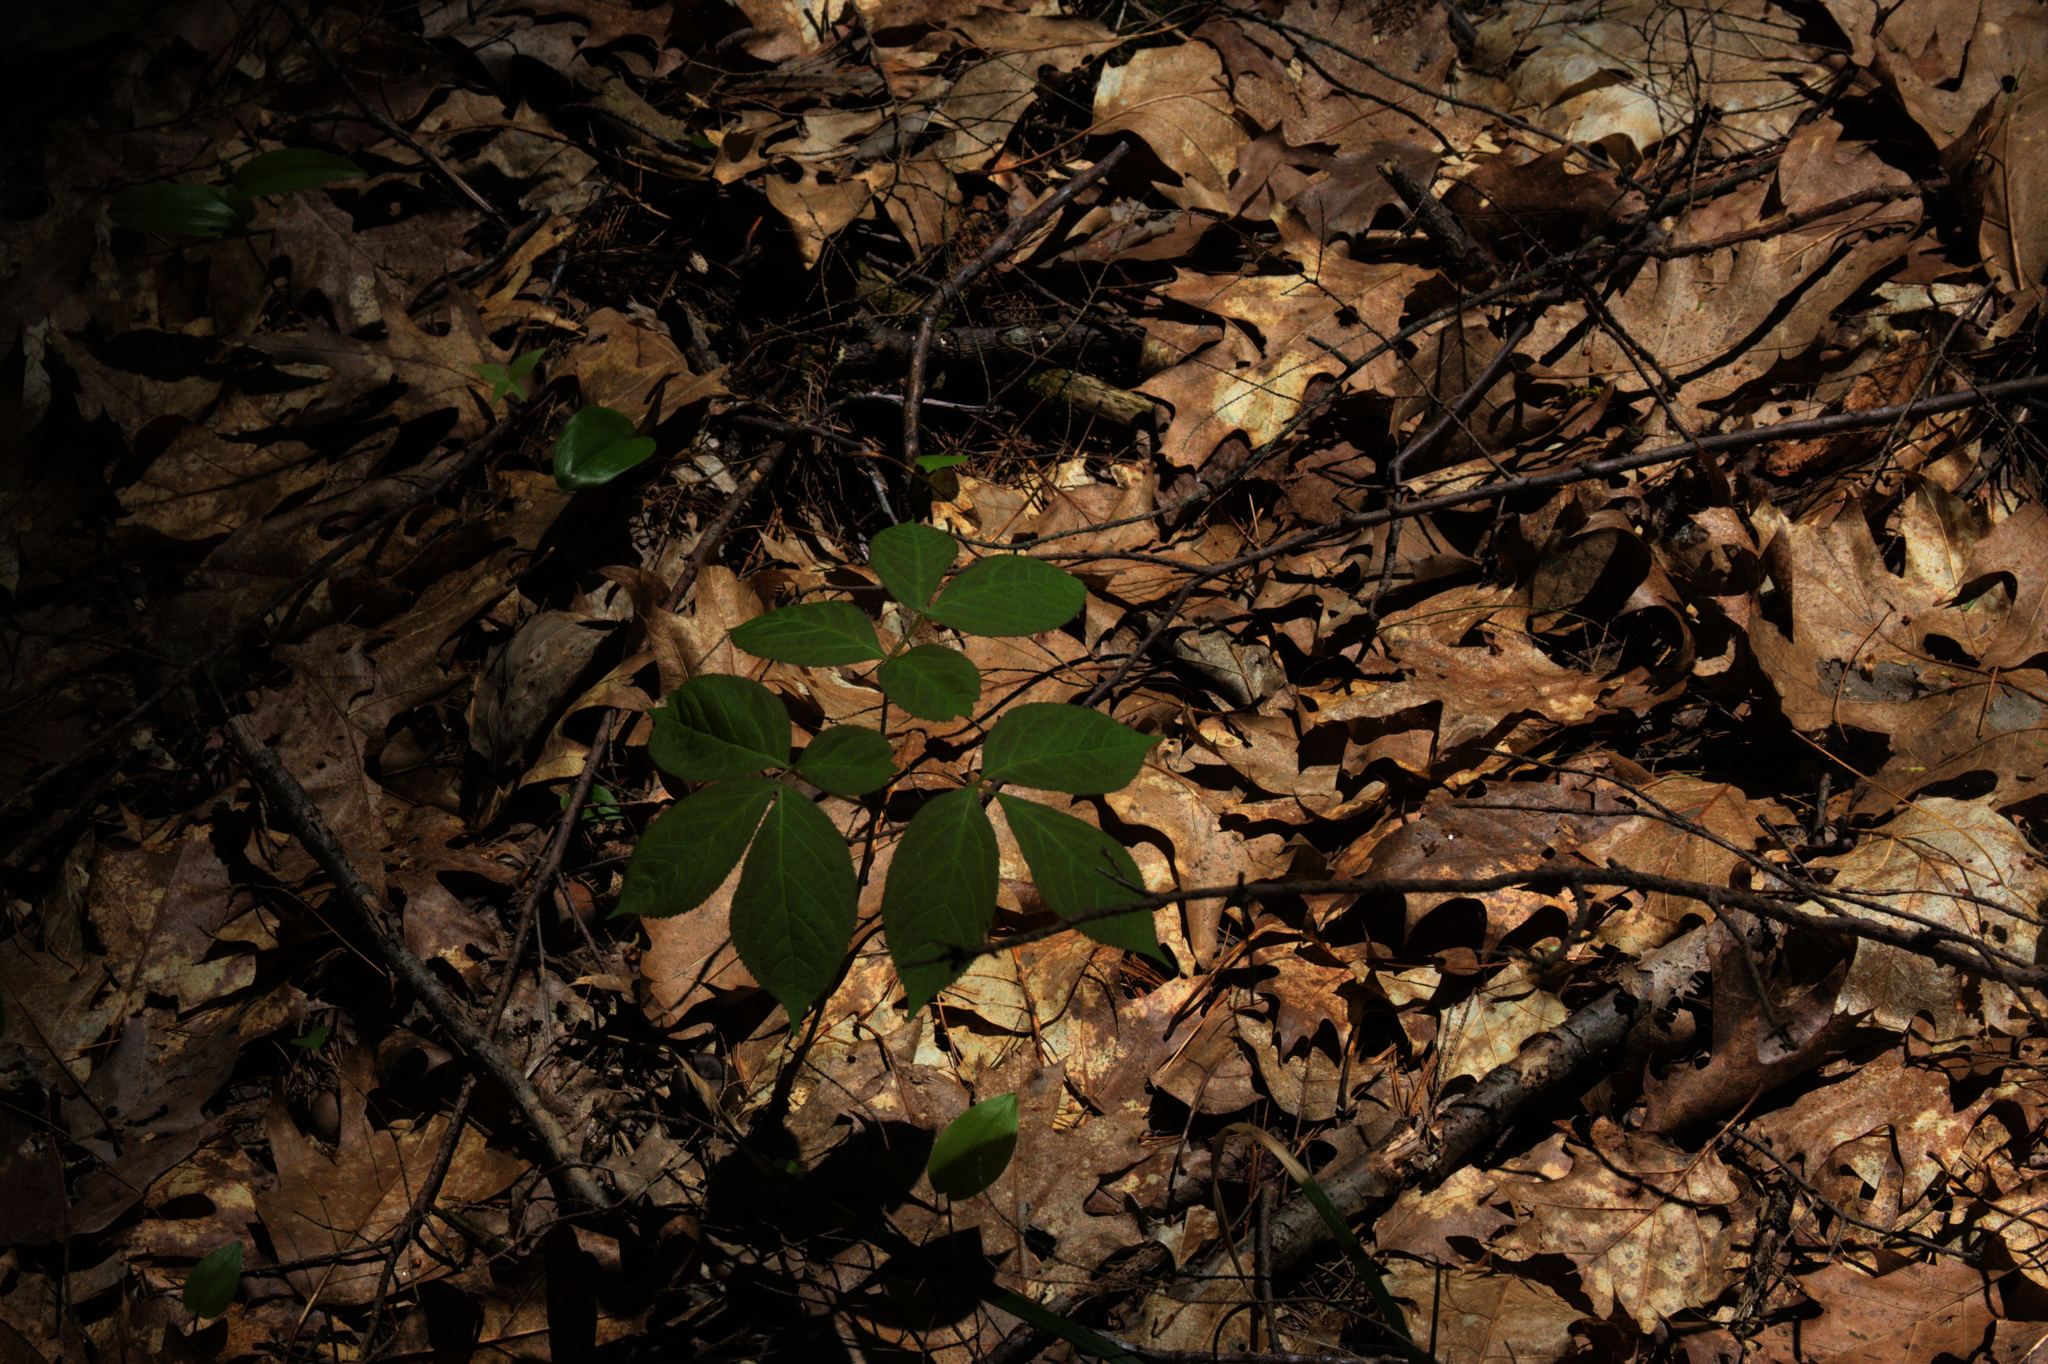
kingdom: Plantae
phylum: Tracheophyta
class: Magnoliopsida
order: Apiales
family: Araliaceae
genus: Aralia
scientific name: Aralia nudicaulis
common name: Wild sarsaparilla
